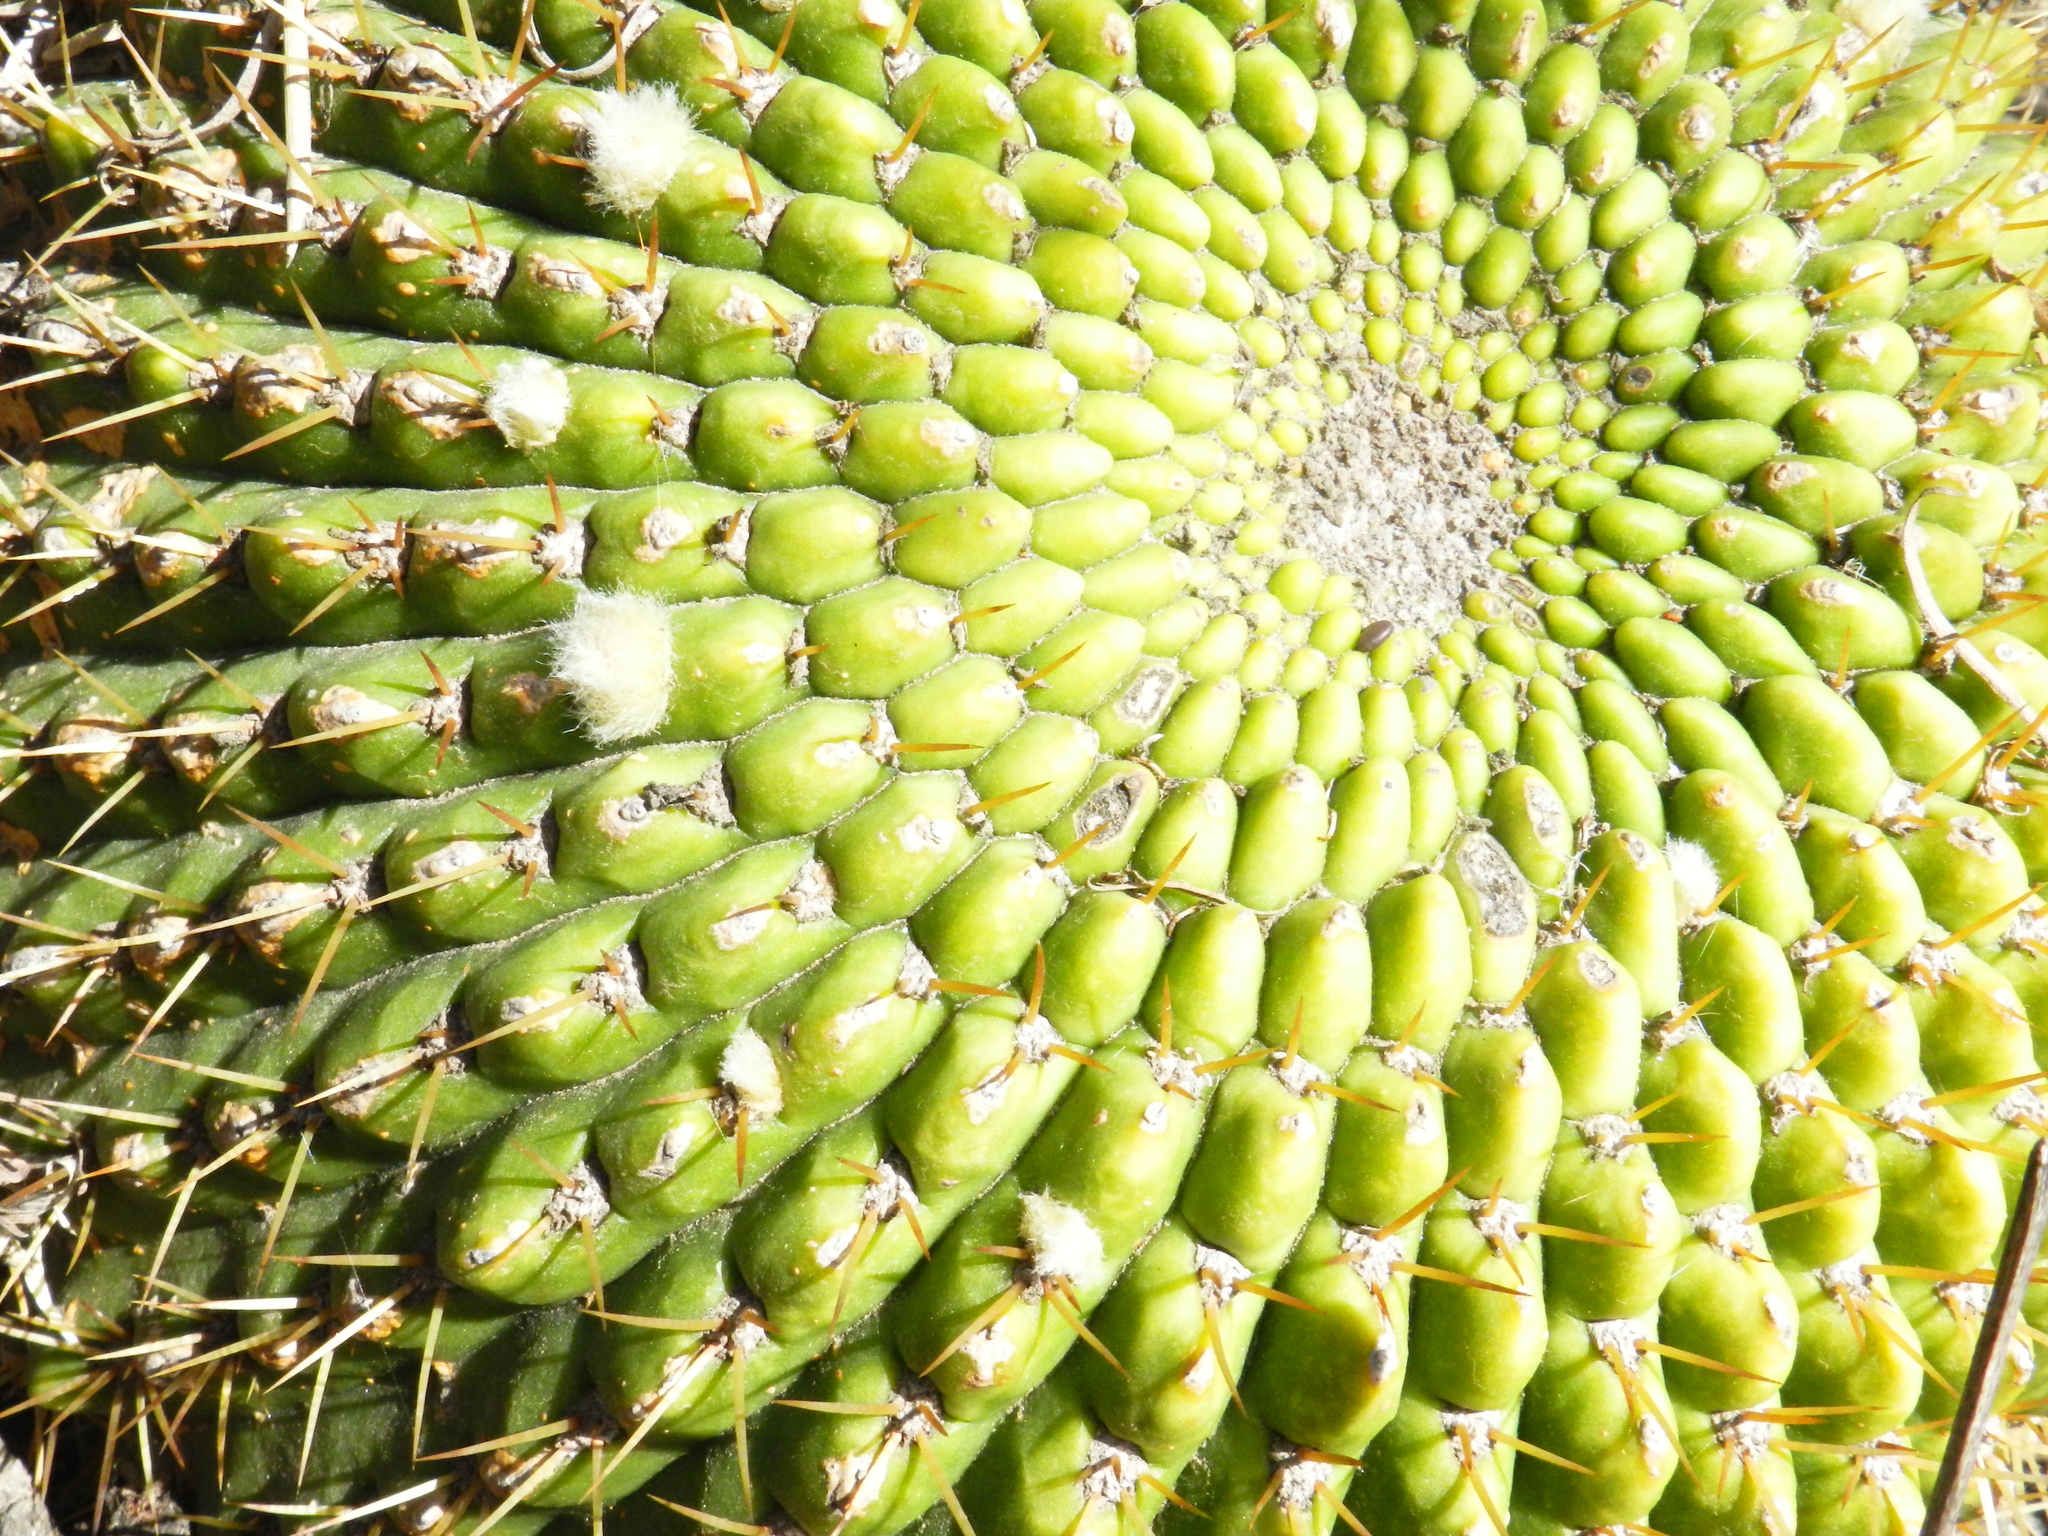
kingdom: Plantae
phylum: Tracheophyta
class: Magnoliopsida
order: Caryophyllales
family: Cactaceae
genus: Soehrensia
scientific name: Soehrensia bruchii
